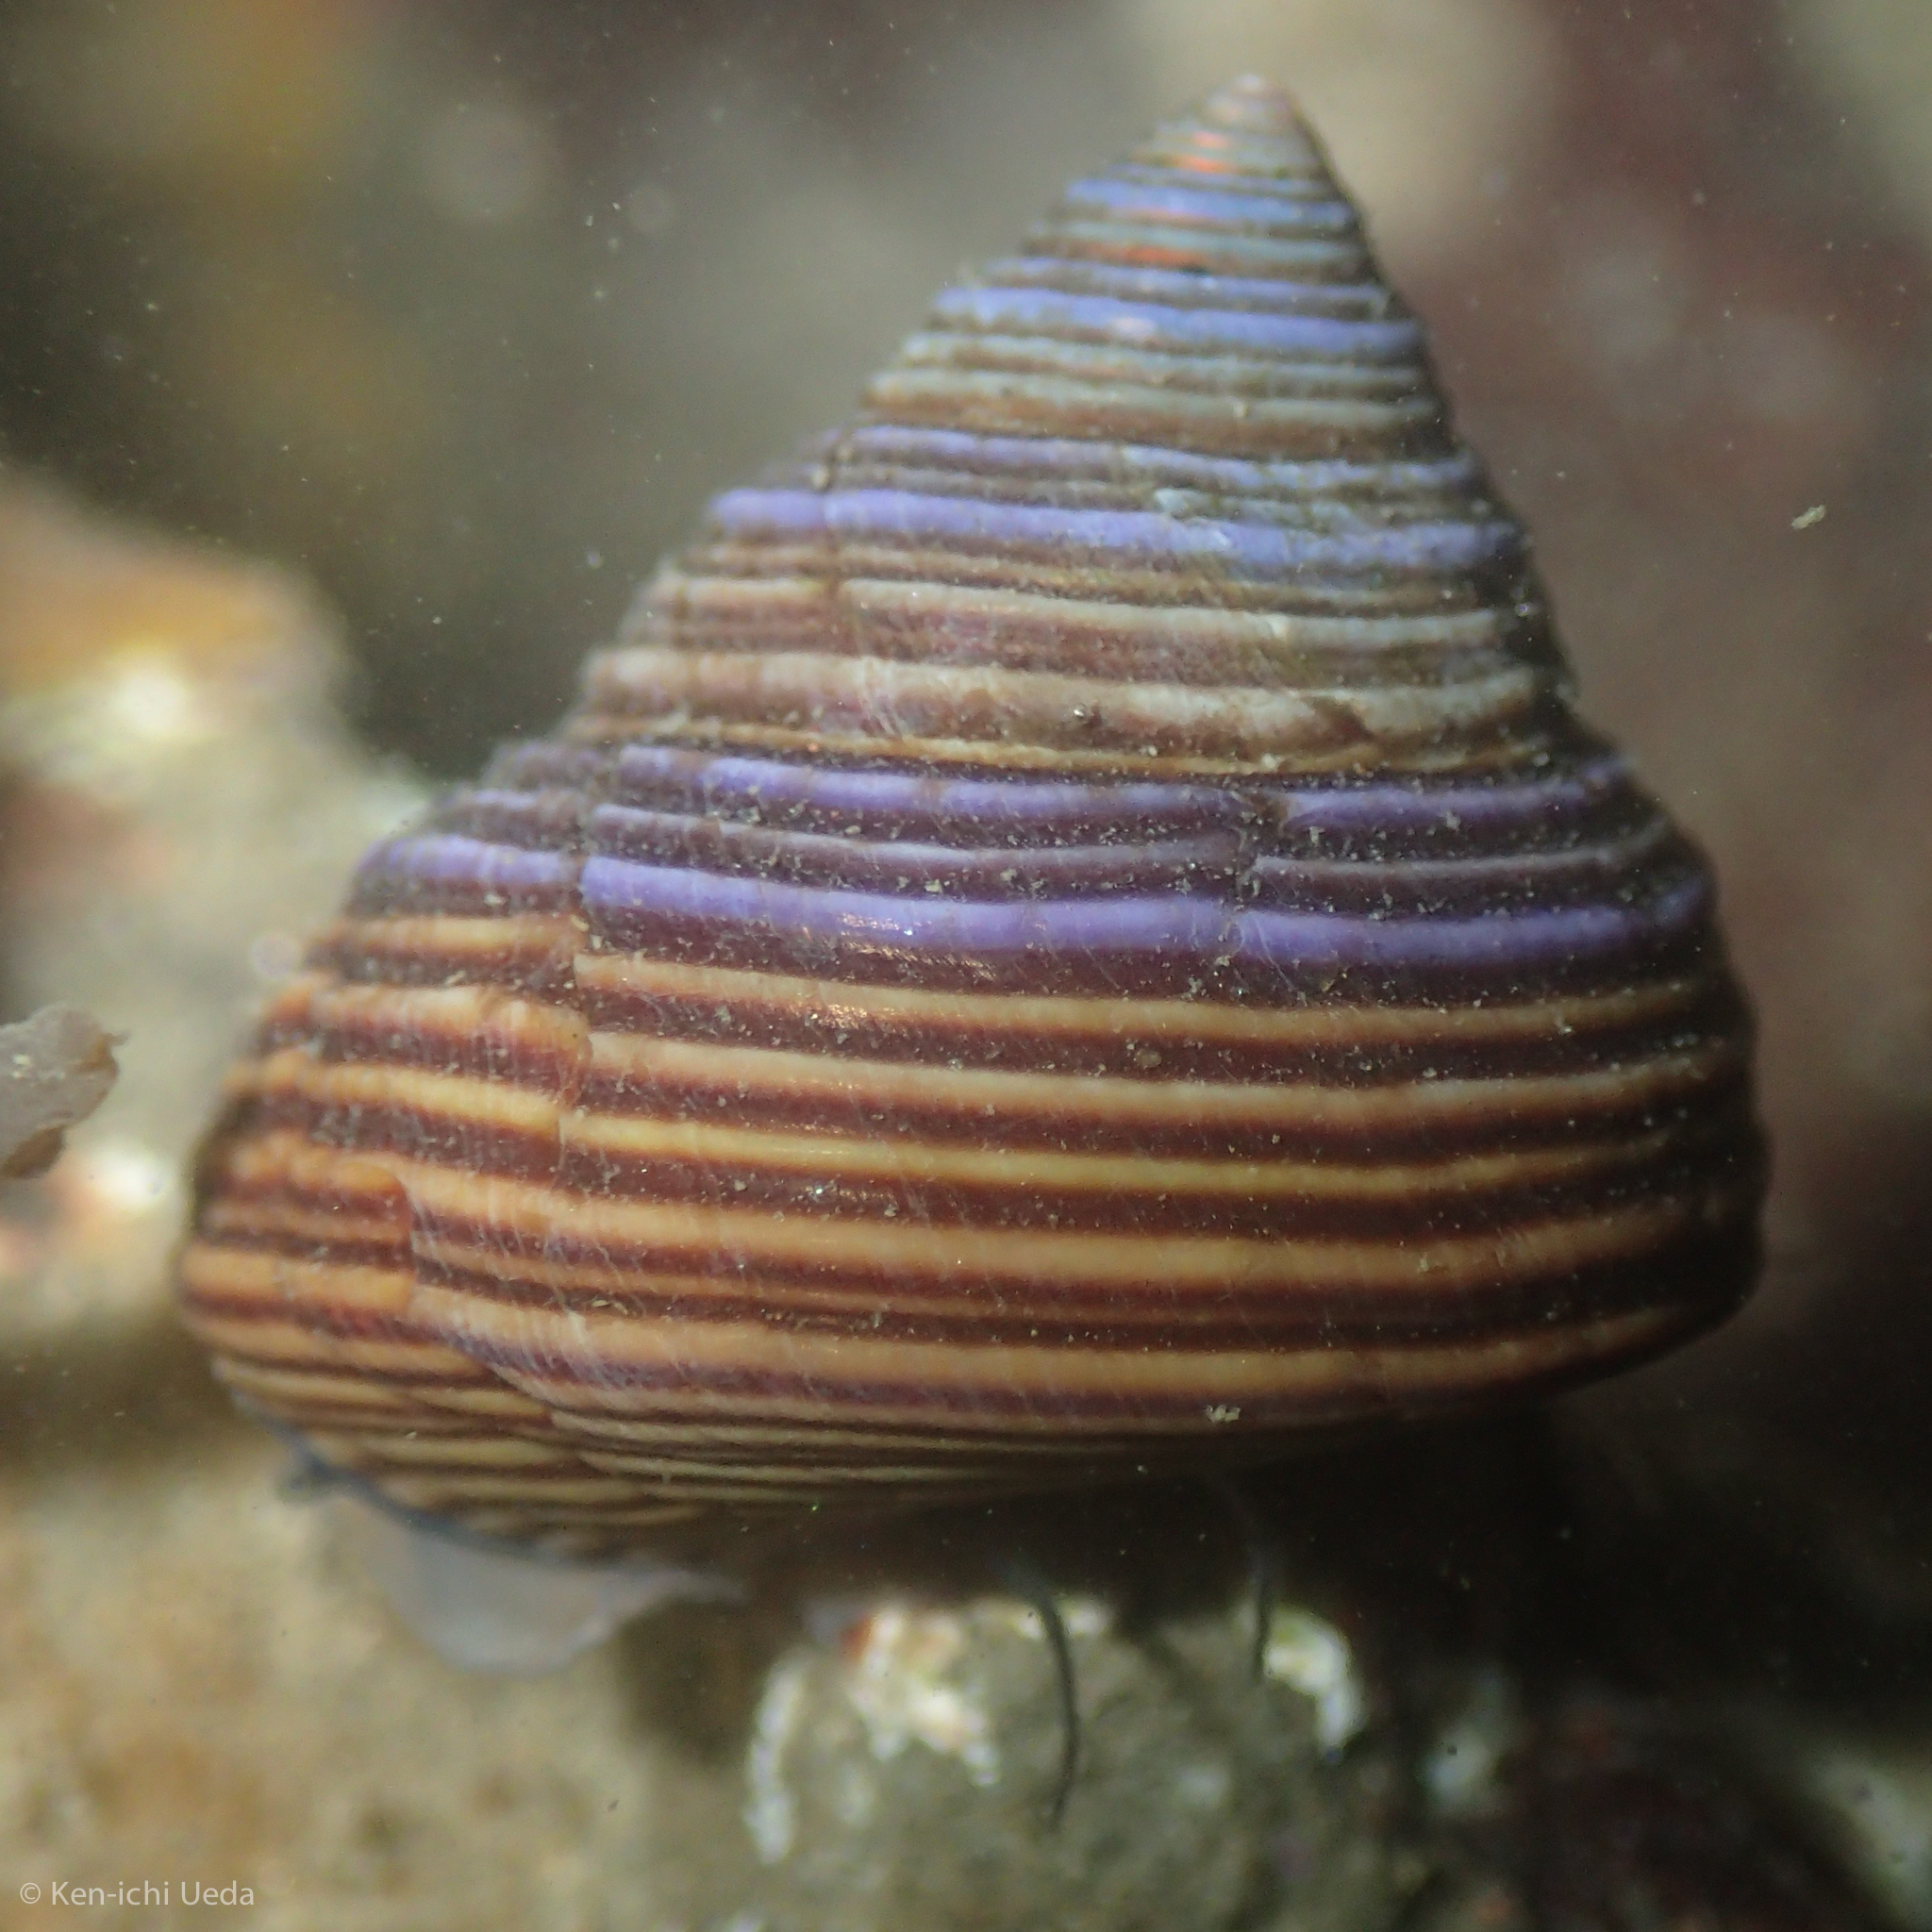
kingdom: Animalia
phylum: Mollusca
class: Gastropoda
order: Trochida
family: Calliostomatidae
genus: Calliostoma
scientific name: Calliostoma ligatum
